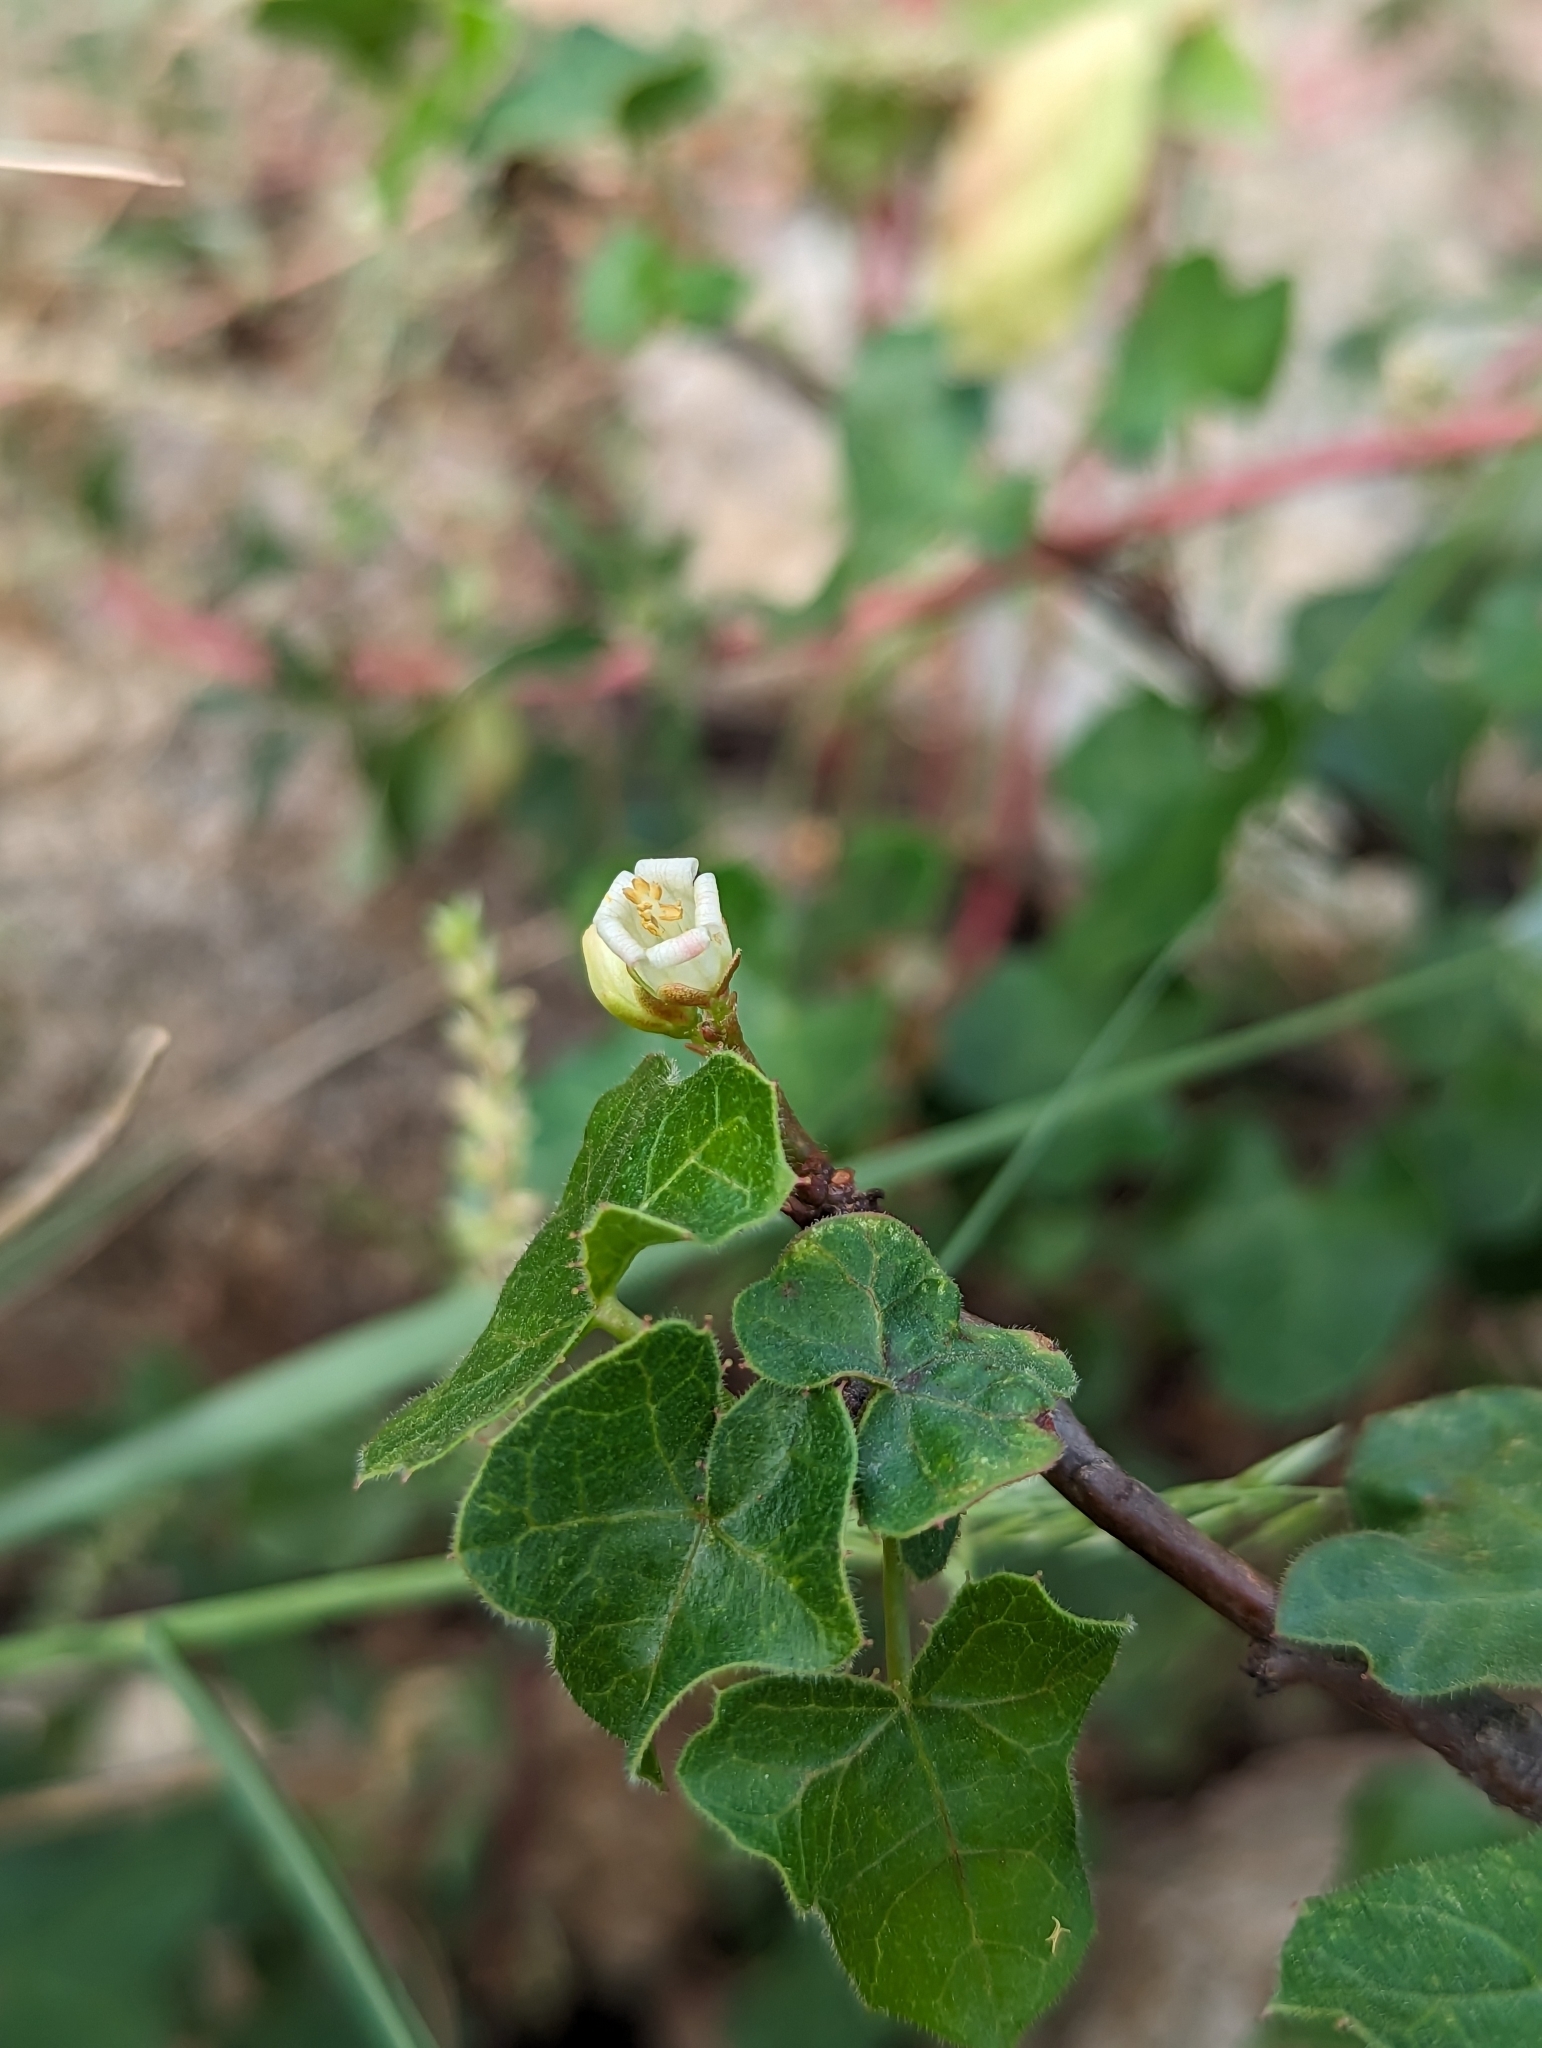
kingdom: Plantae
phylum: Tracheophyta
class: Magnoliopsida
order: Malpighiales
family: Euphorbiaceae
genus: Jatropha
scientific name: Jatropha moranii
